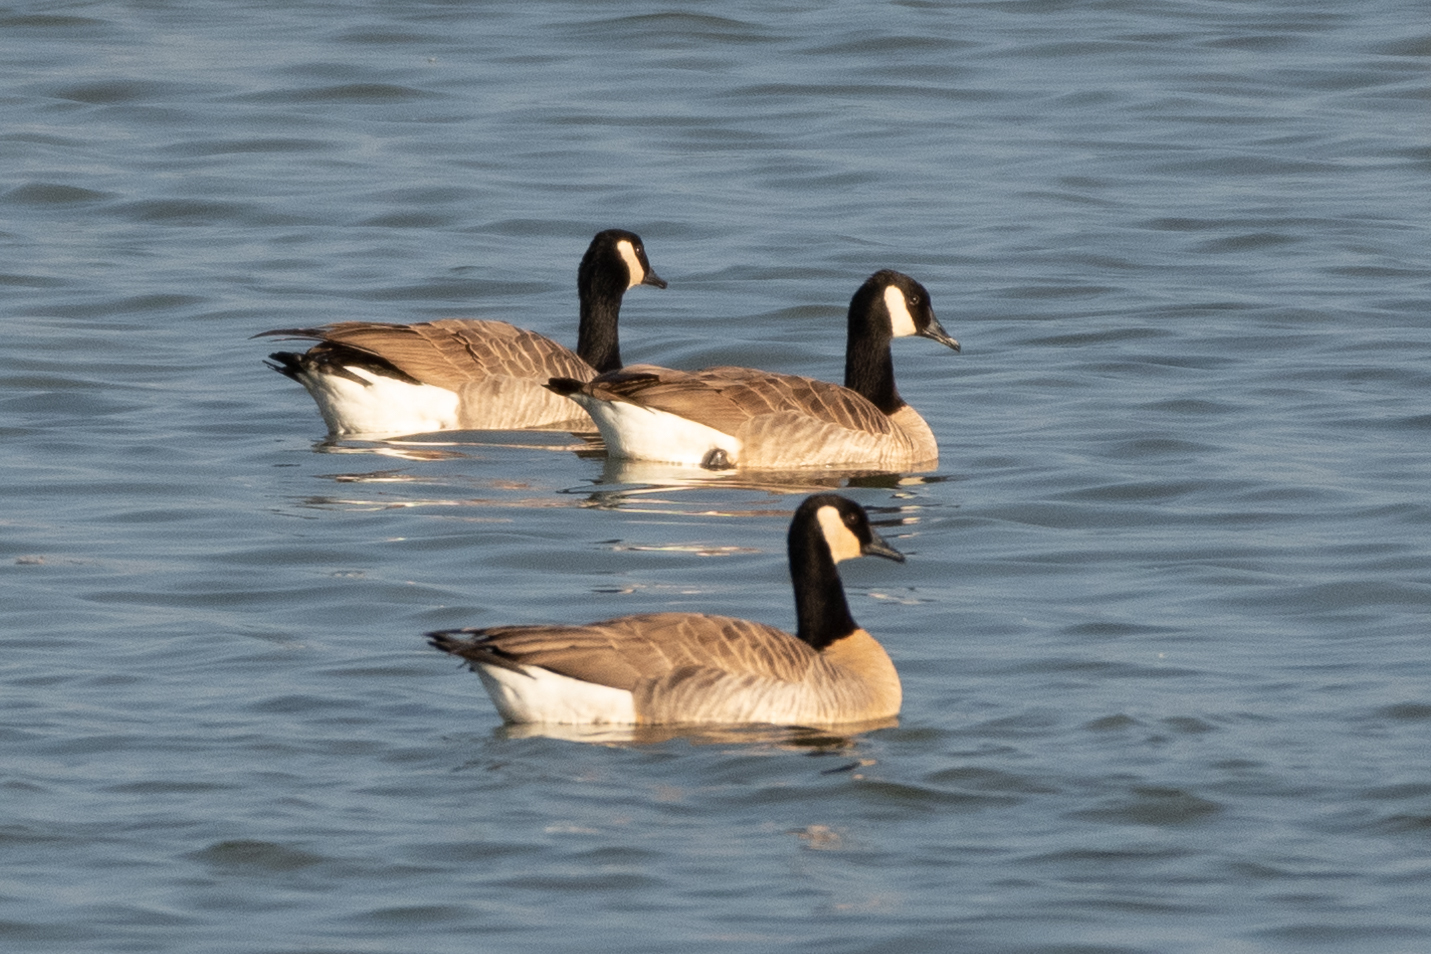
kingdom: Animalia
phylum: Chordata
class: Aves
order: Anseriformes
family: Anatidae
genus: Branta
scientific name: Branta canadensis
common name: Canada goose
